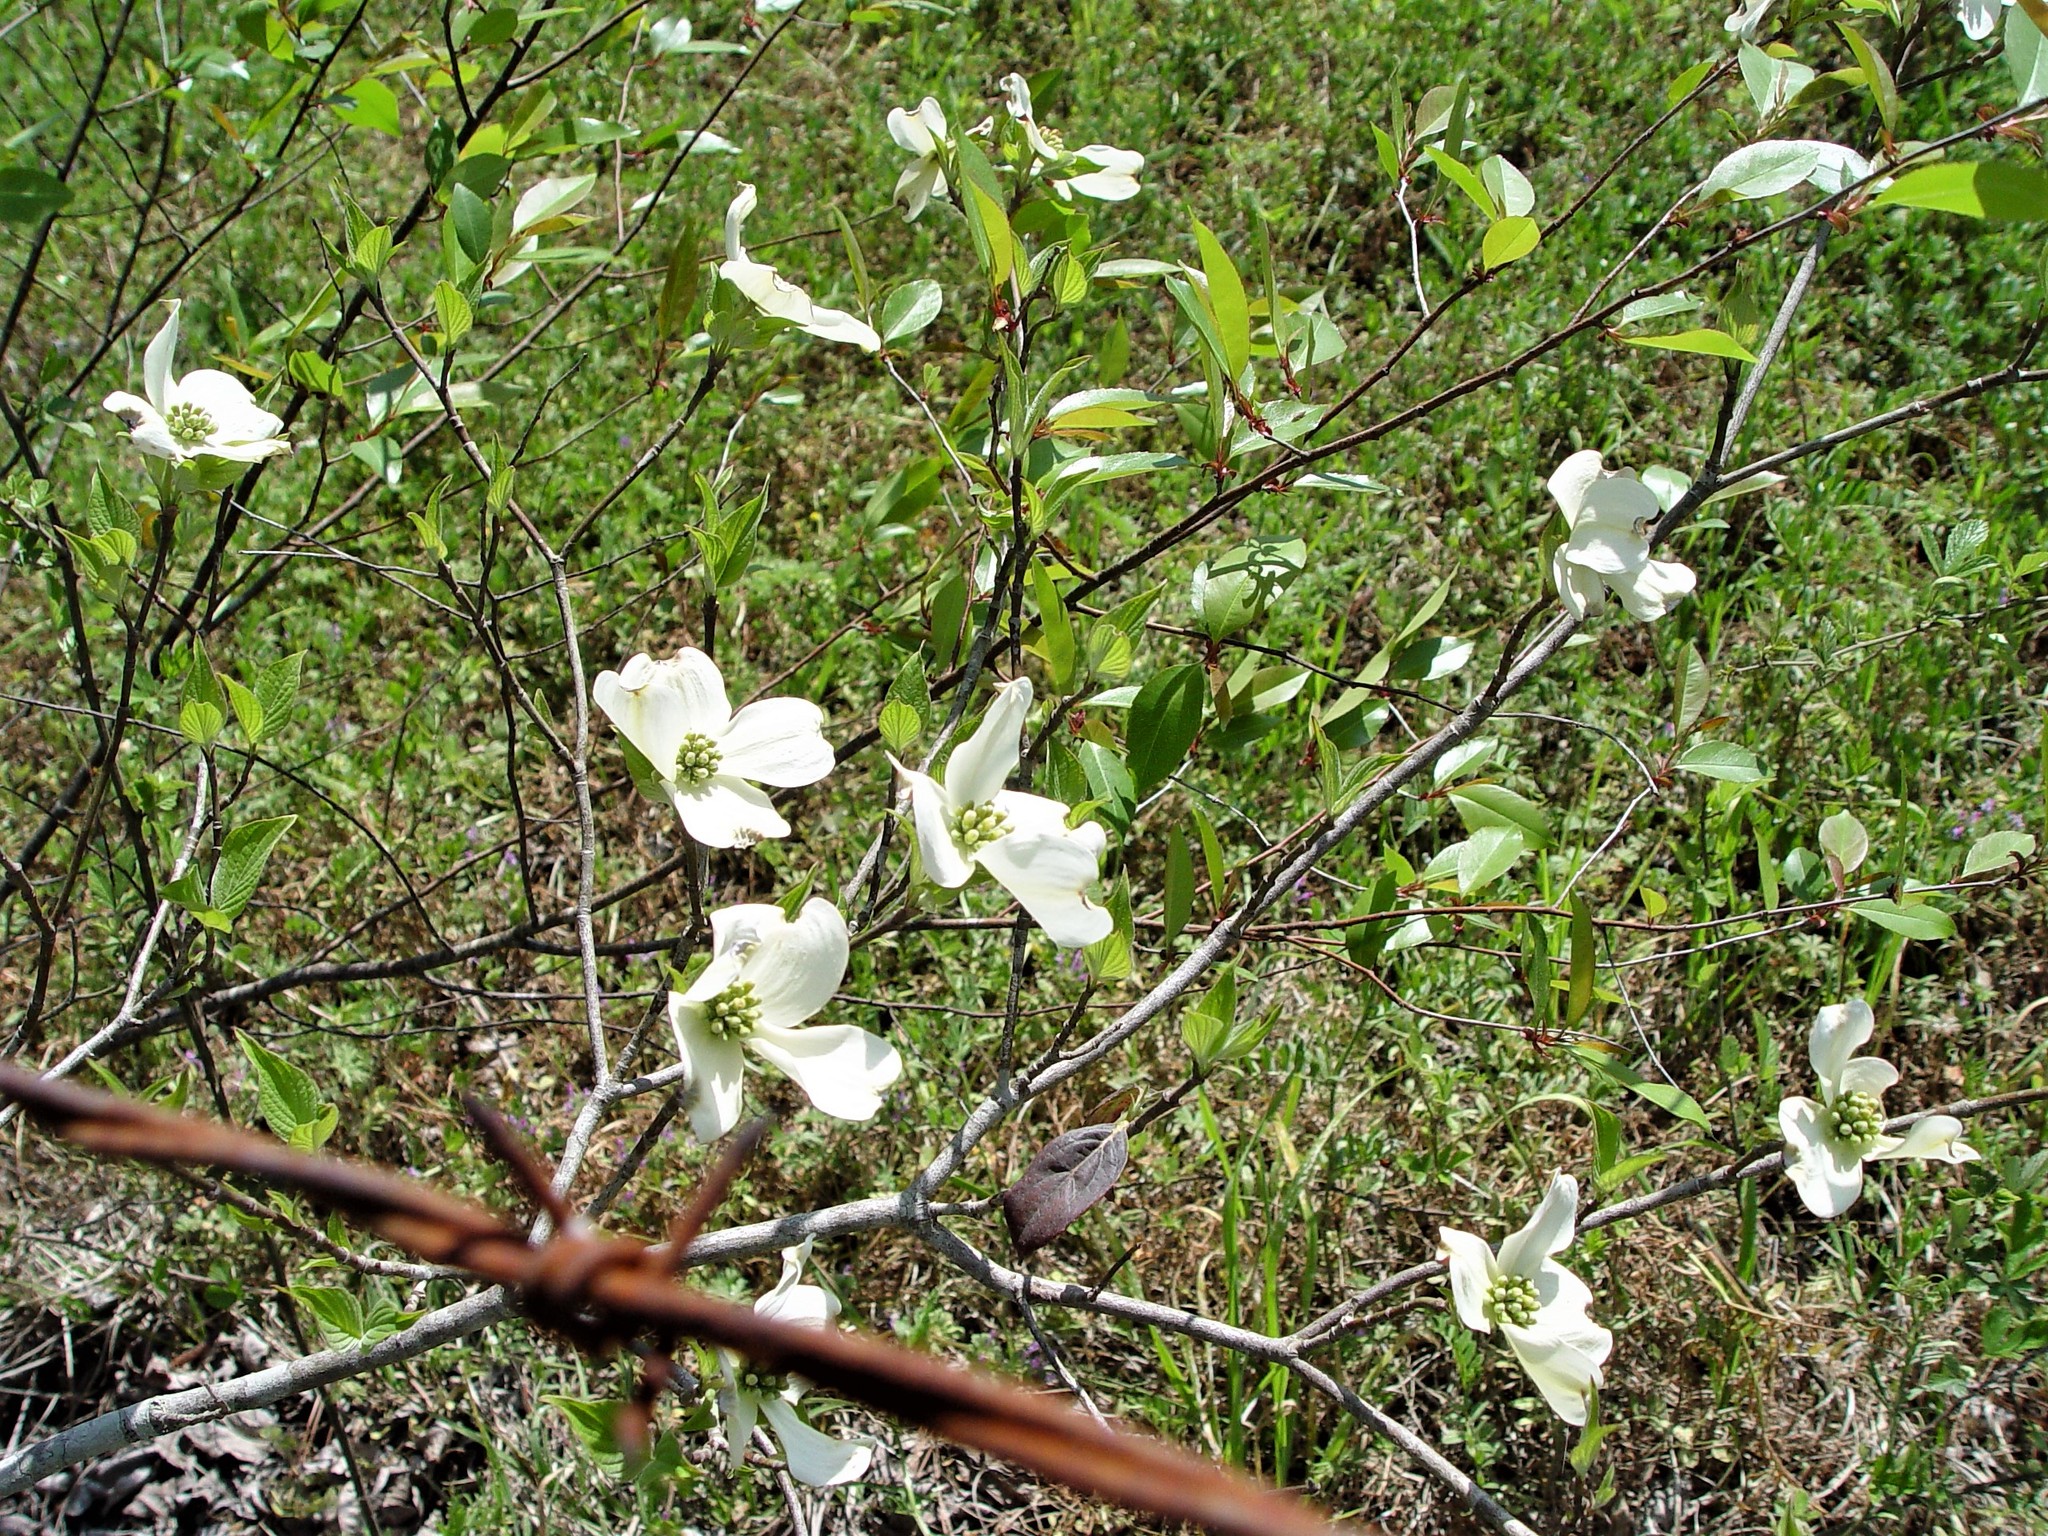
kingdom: Plantae
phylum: Tracheophyta
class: Magnoliopsida
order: Cornales
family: Cornaceae
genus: Cornus
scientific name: Cornus florida
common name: Flowering dogwood
